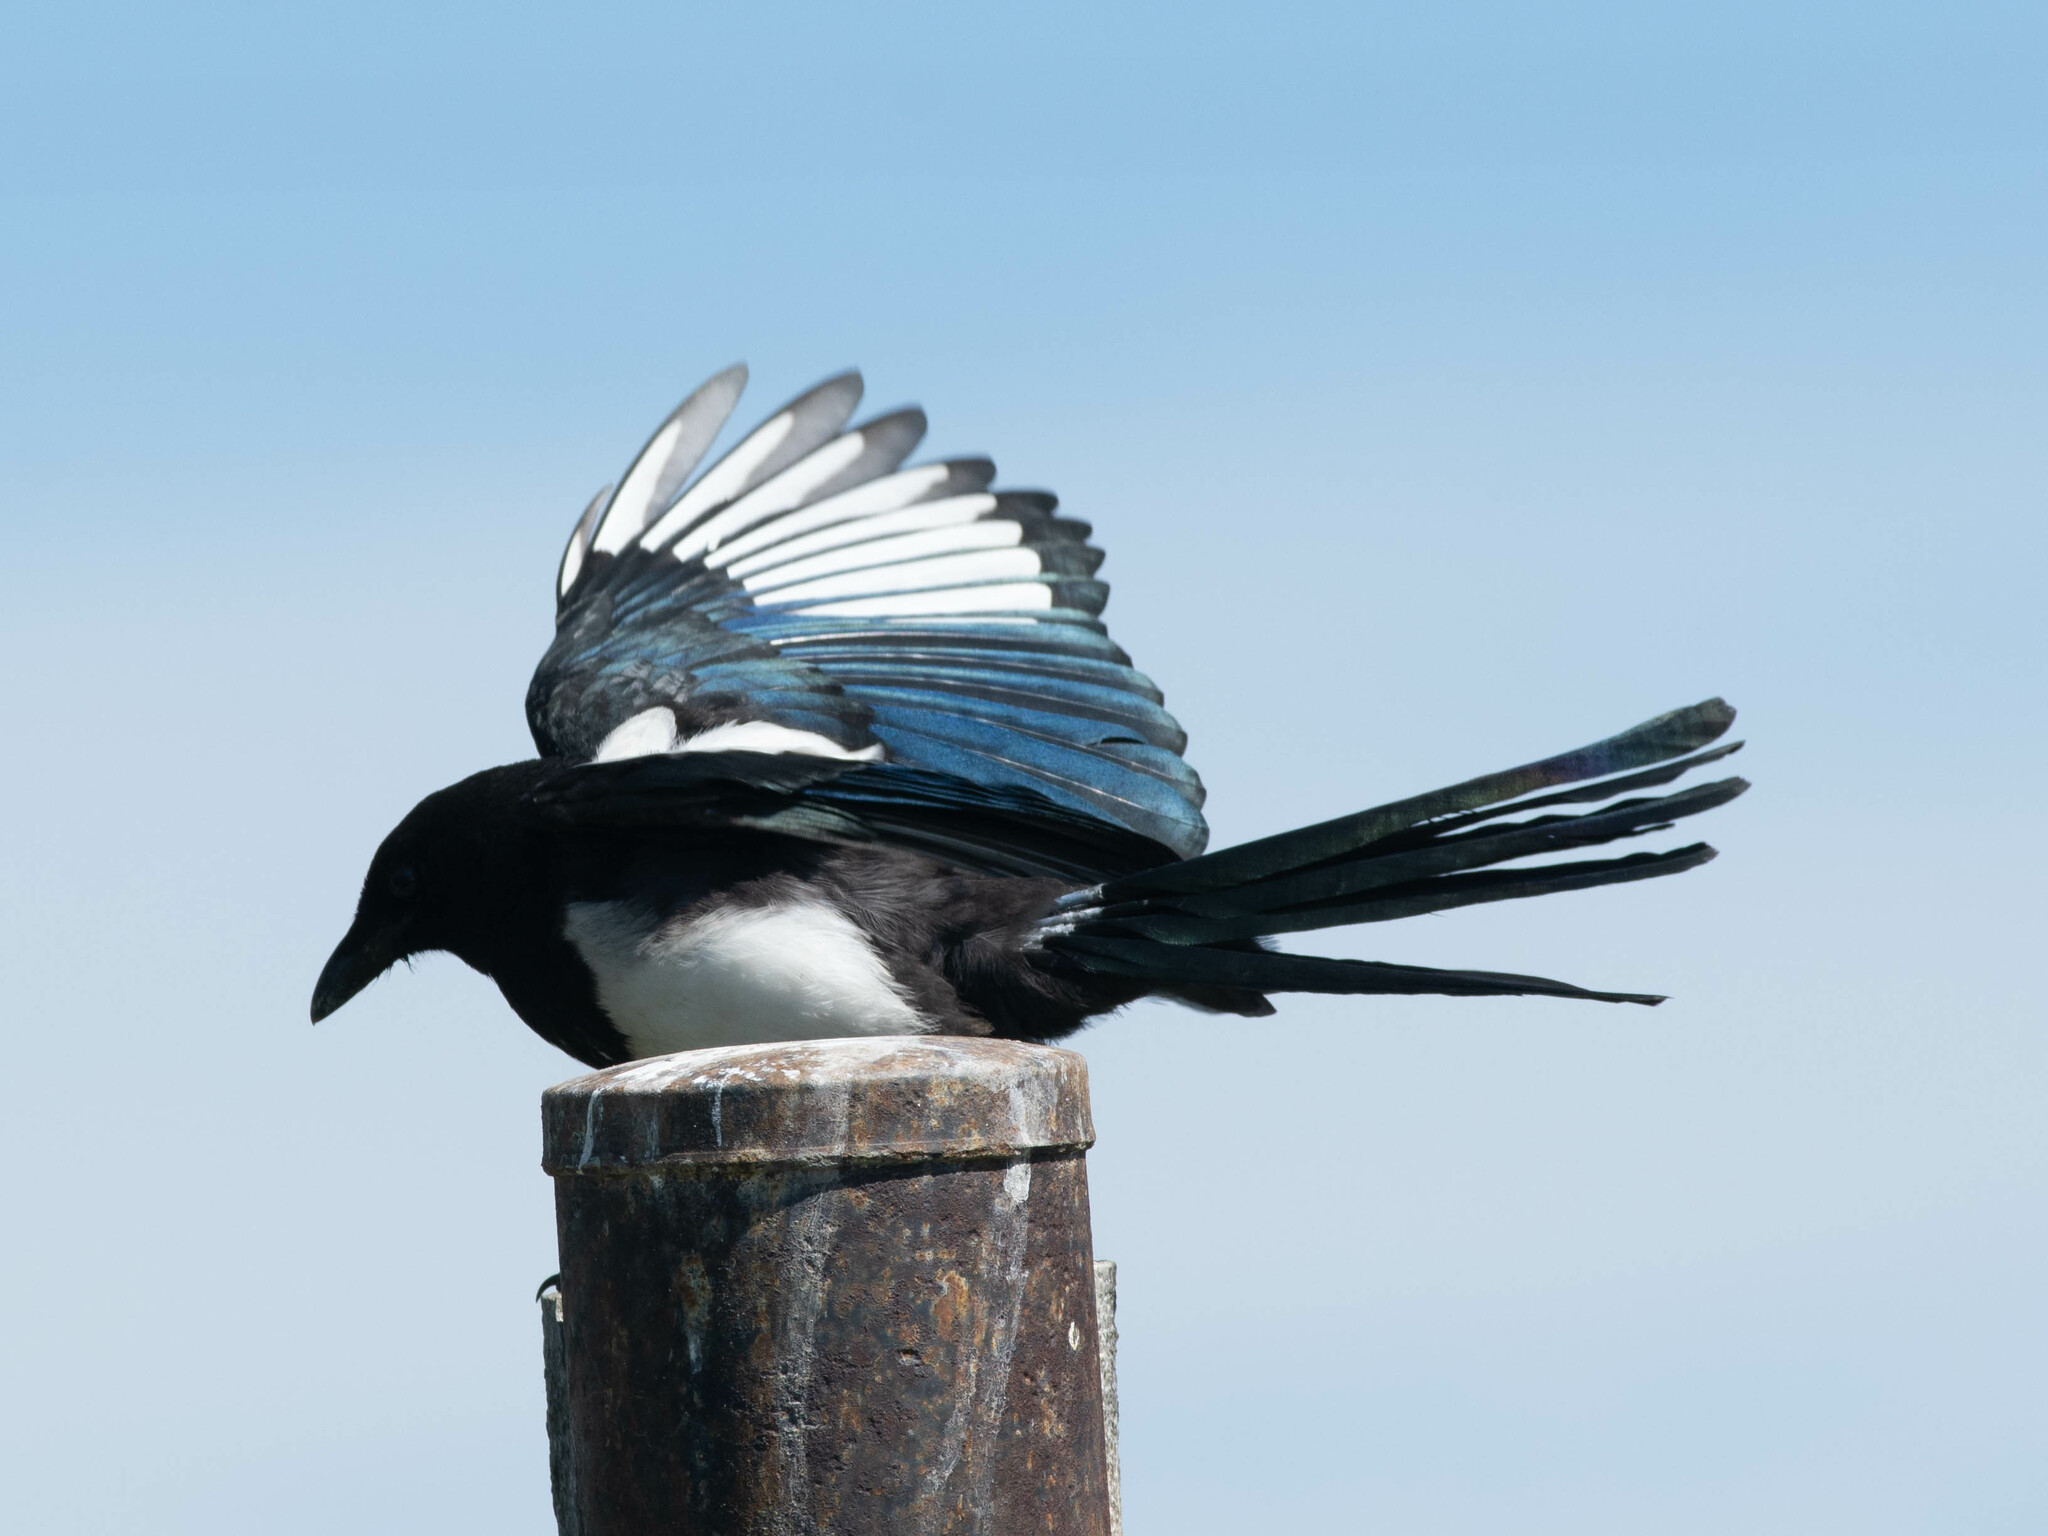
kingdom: Animalia
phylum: Chordata
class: Aves
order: Passeriformes
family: Corvidae
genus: Pica
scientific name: Pica hudsonia
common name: Black-billed magpie
